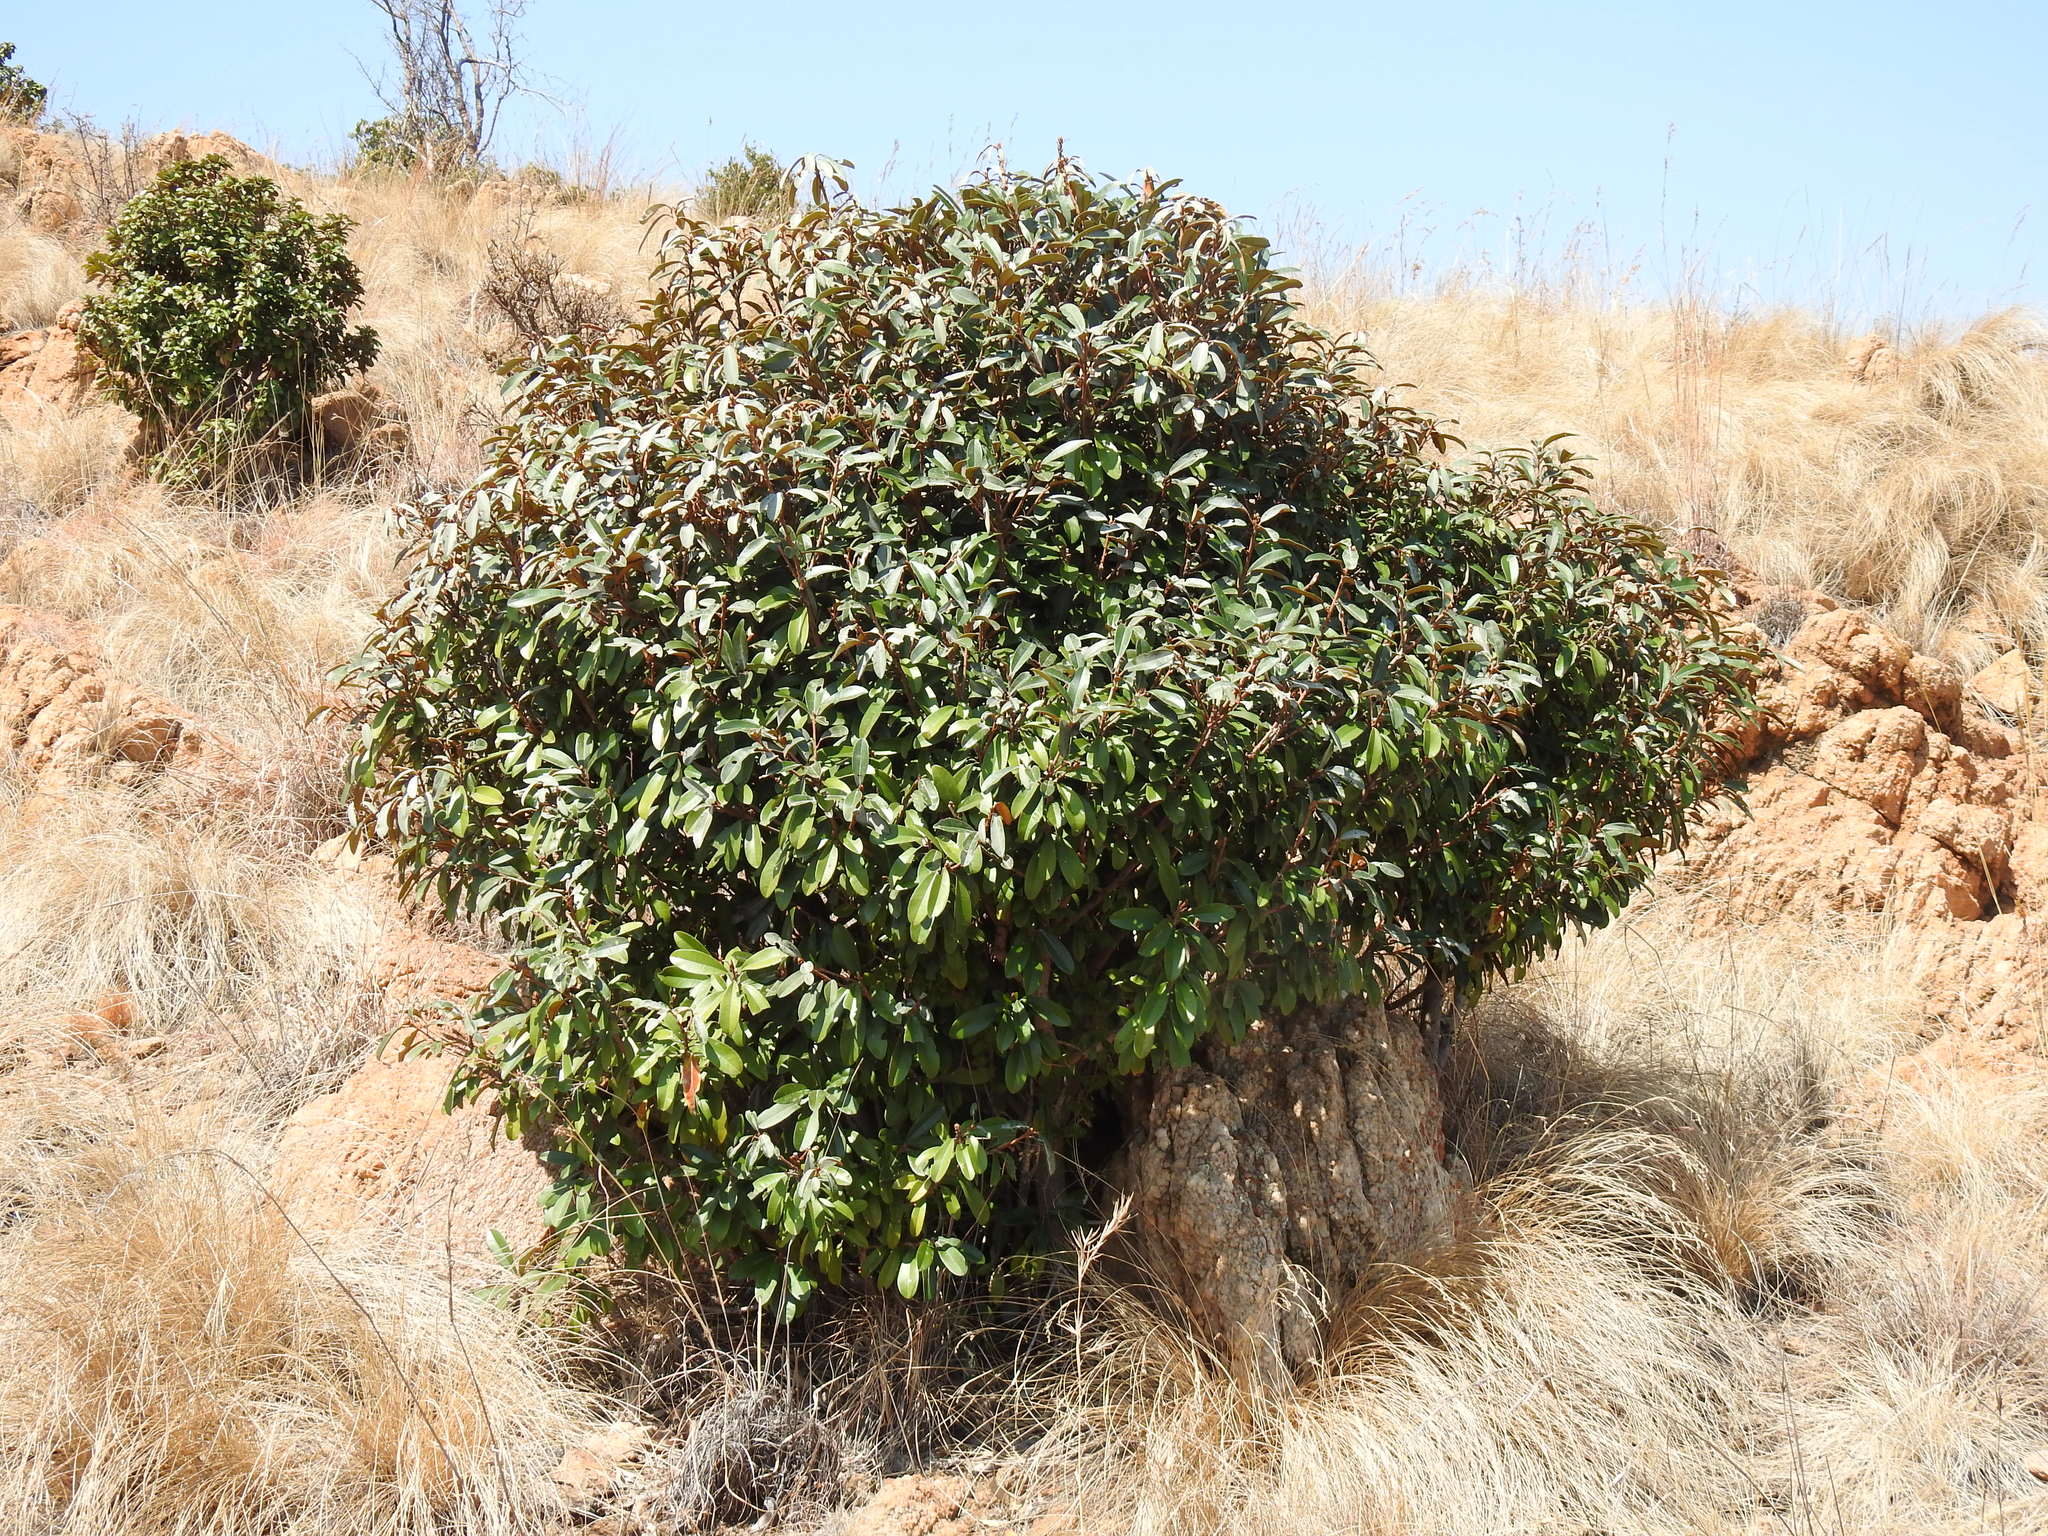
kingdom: Plantae
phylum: Tracheophyta
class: Magnoliopsida
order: Ericales
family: Sapotaceae
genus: Englerophytum
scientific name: Englerophytum magalismontanum
